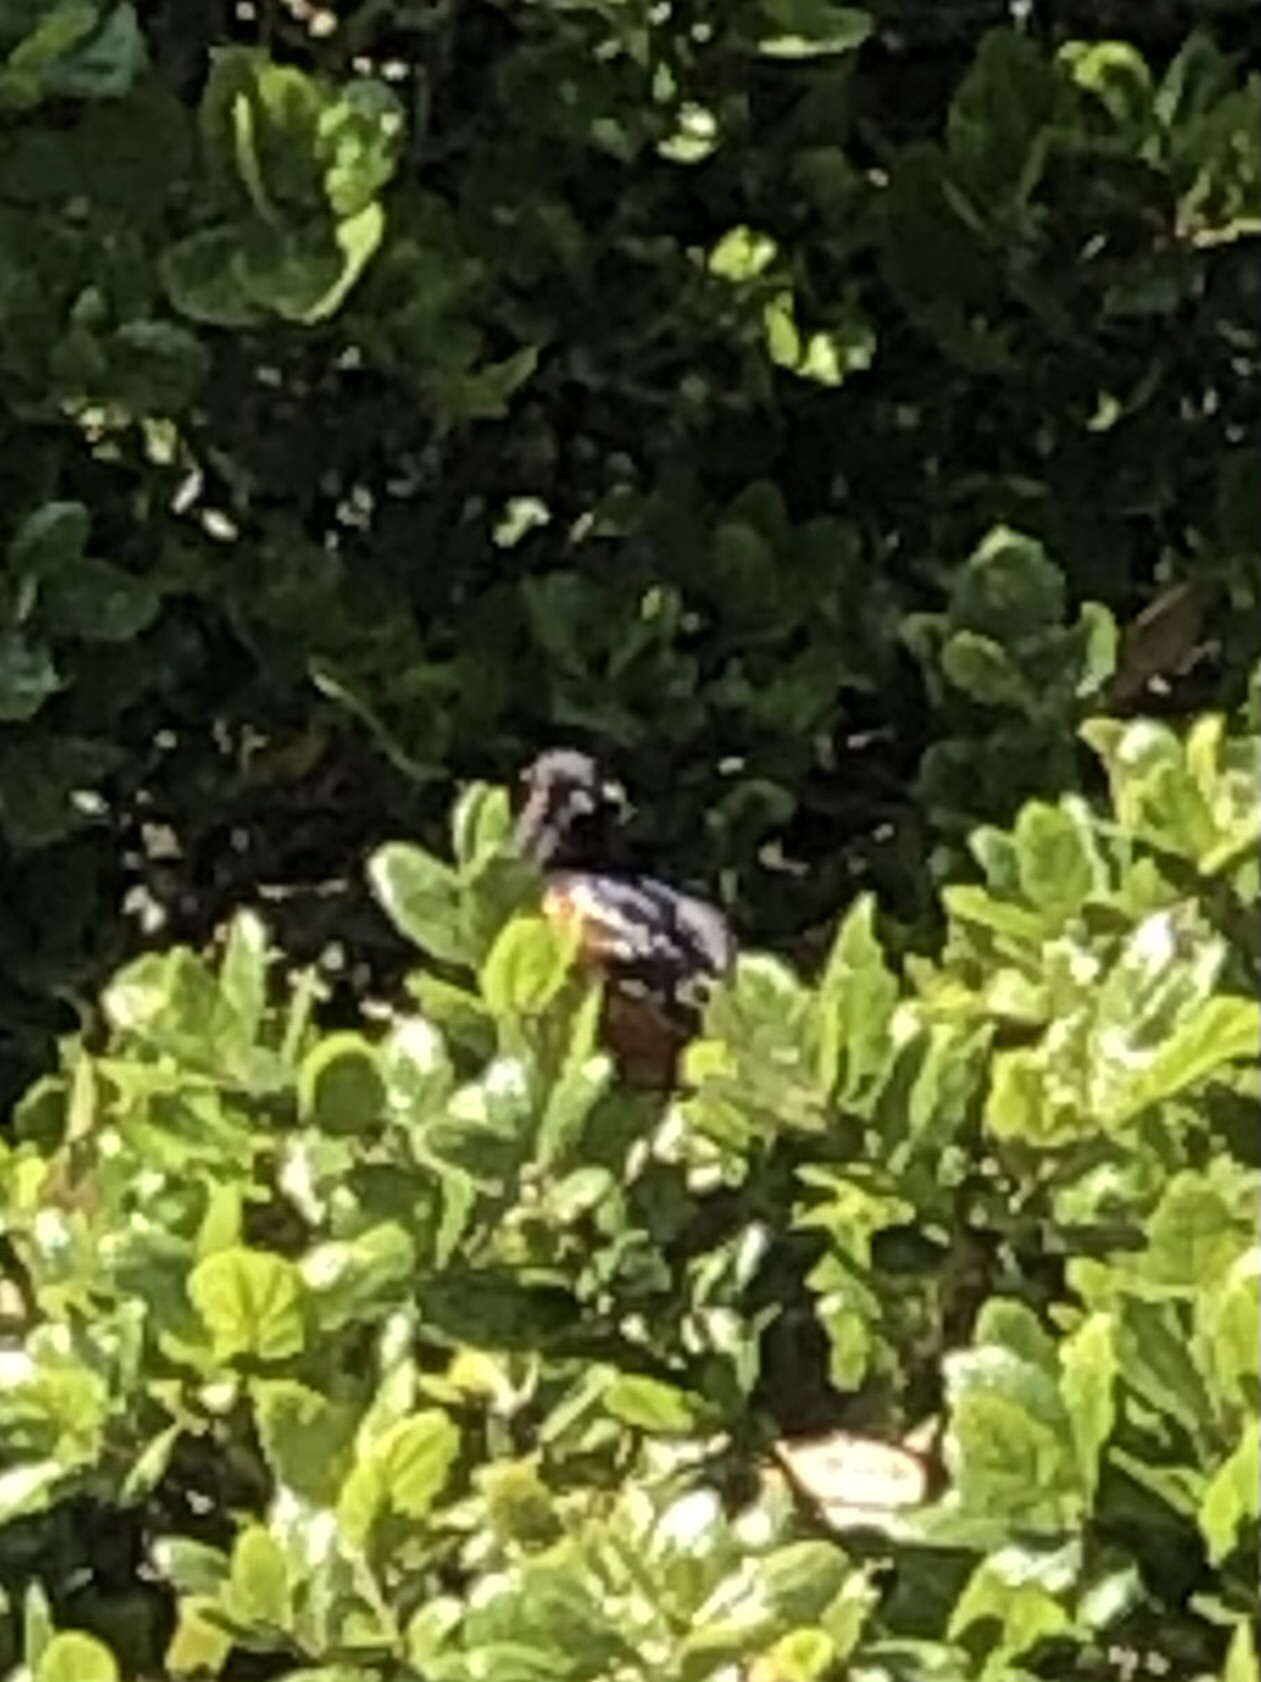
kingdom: Animalia
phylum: Chordata
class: Aves
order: Passeriformes
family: Passerellidae
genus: Pipilo
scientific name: Pipilo maculatus
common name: Spotted towhee
